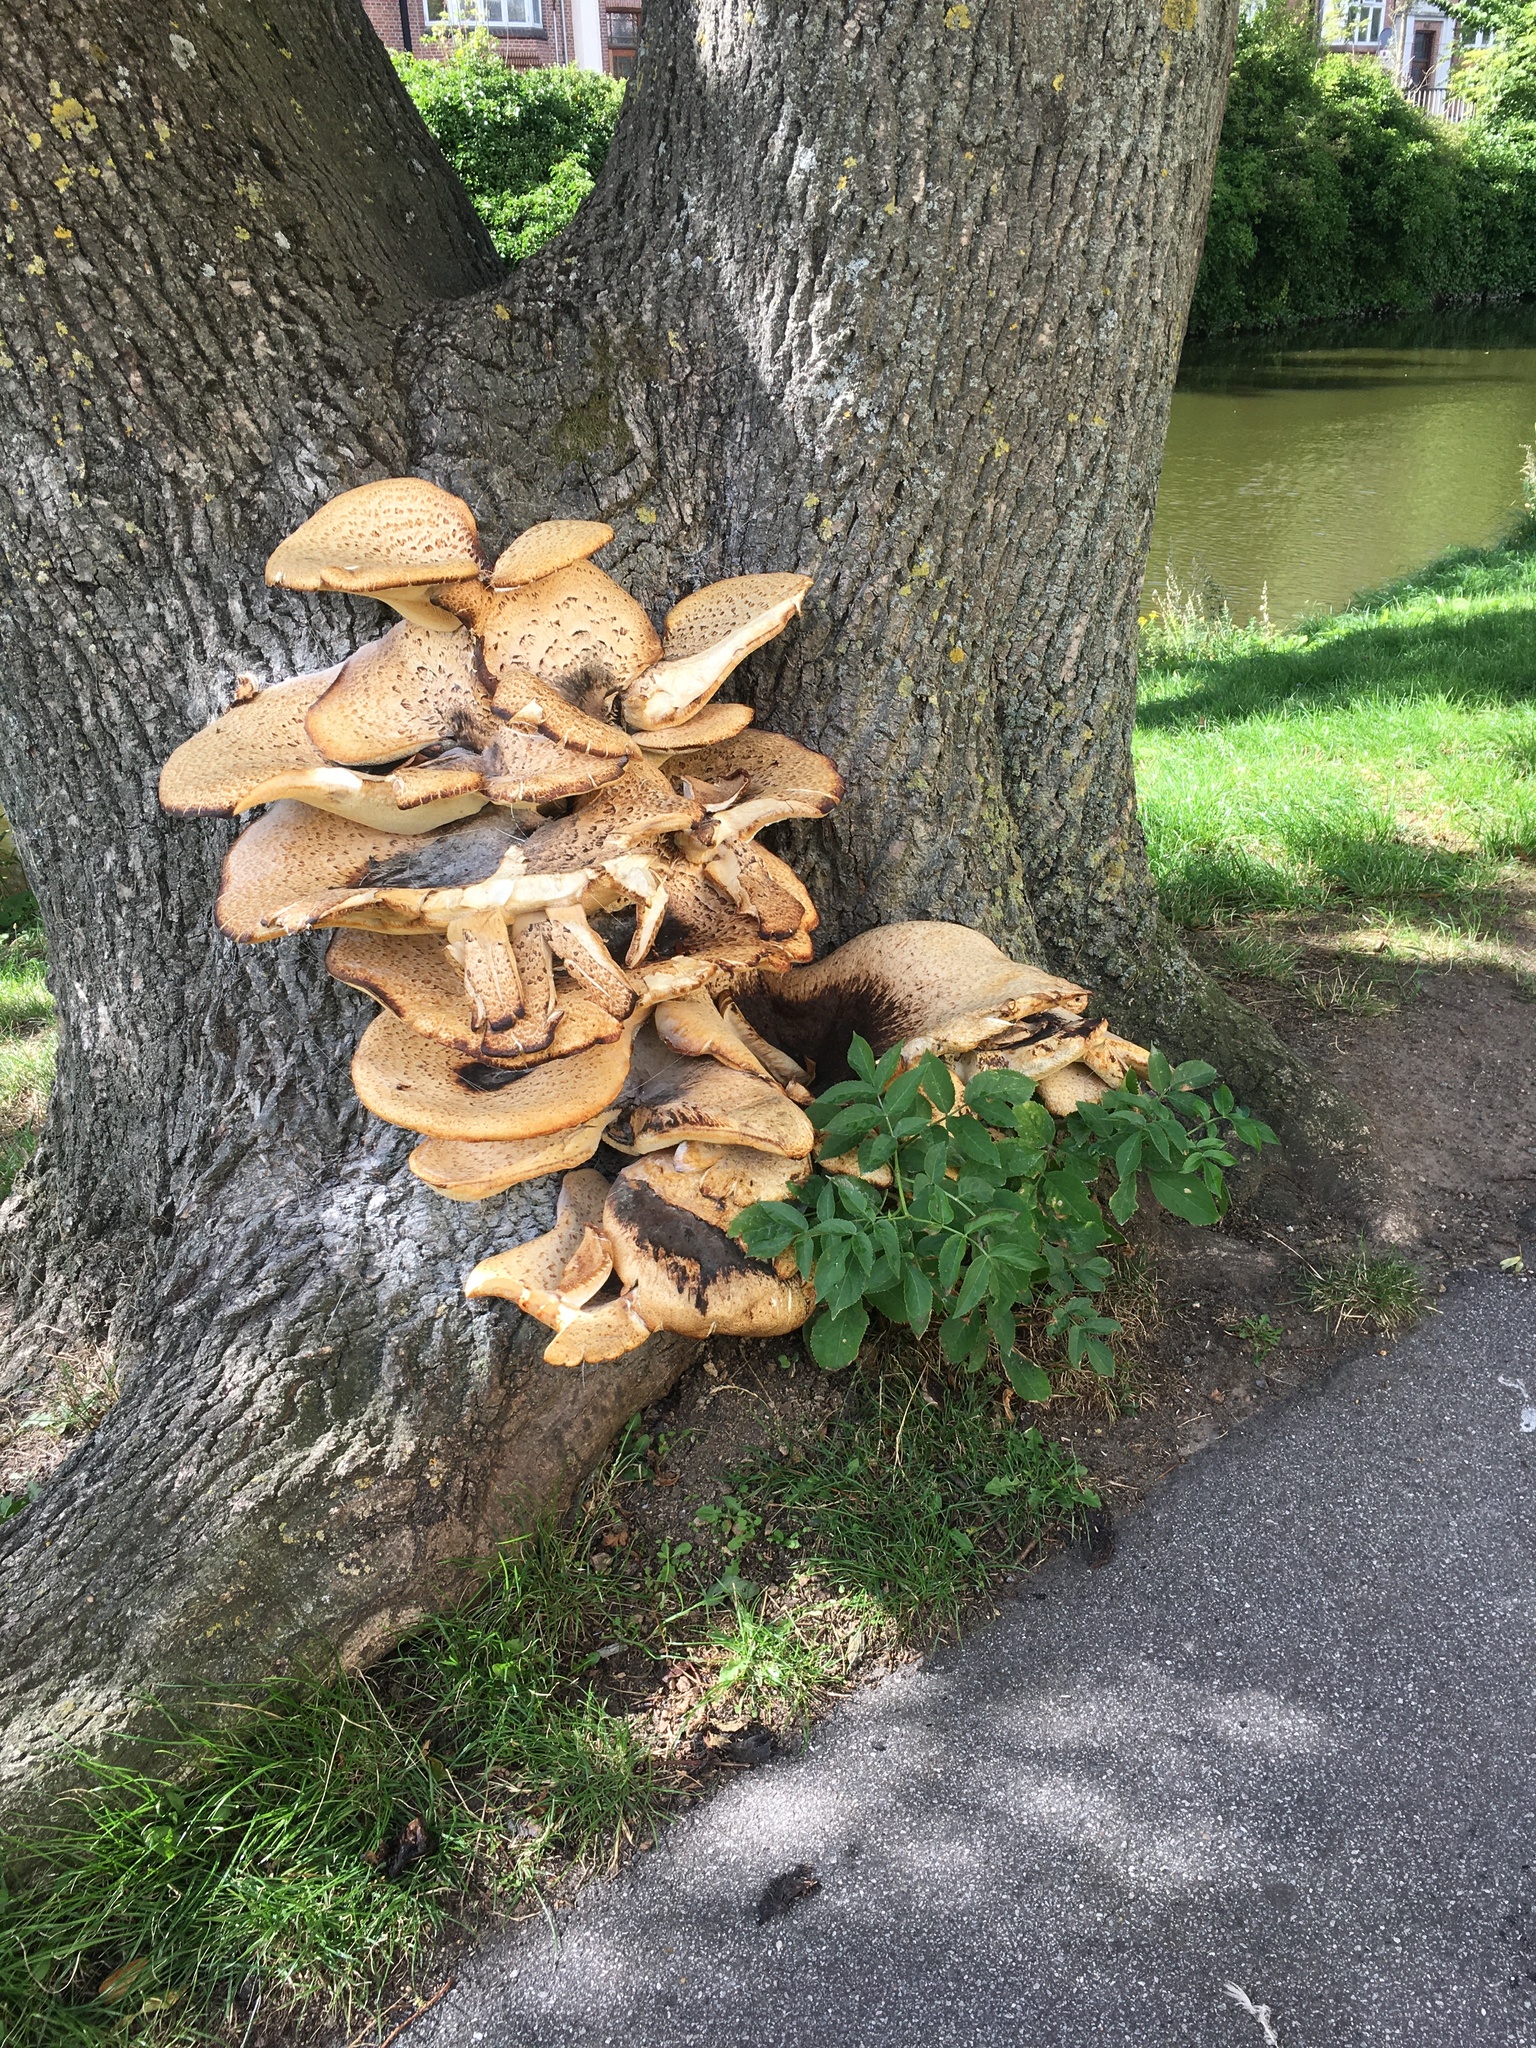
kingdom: Fungi
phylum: Basidiomycota
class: Agaricomycetes
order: Polyporales
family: Polyporaceae
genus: Cerioporus
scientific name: Cerioporus squamosus
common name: Dryad's saddle
